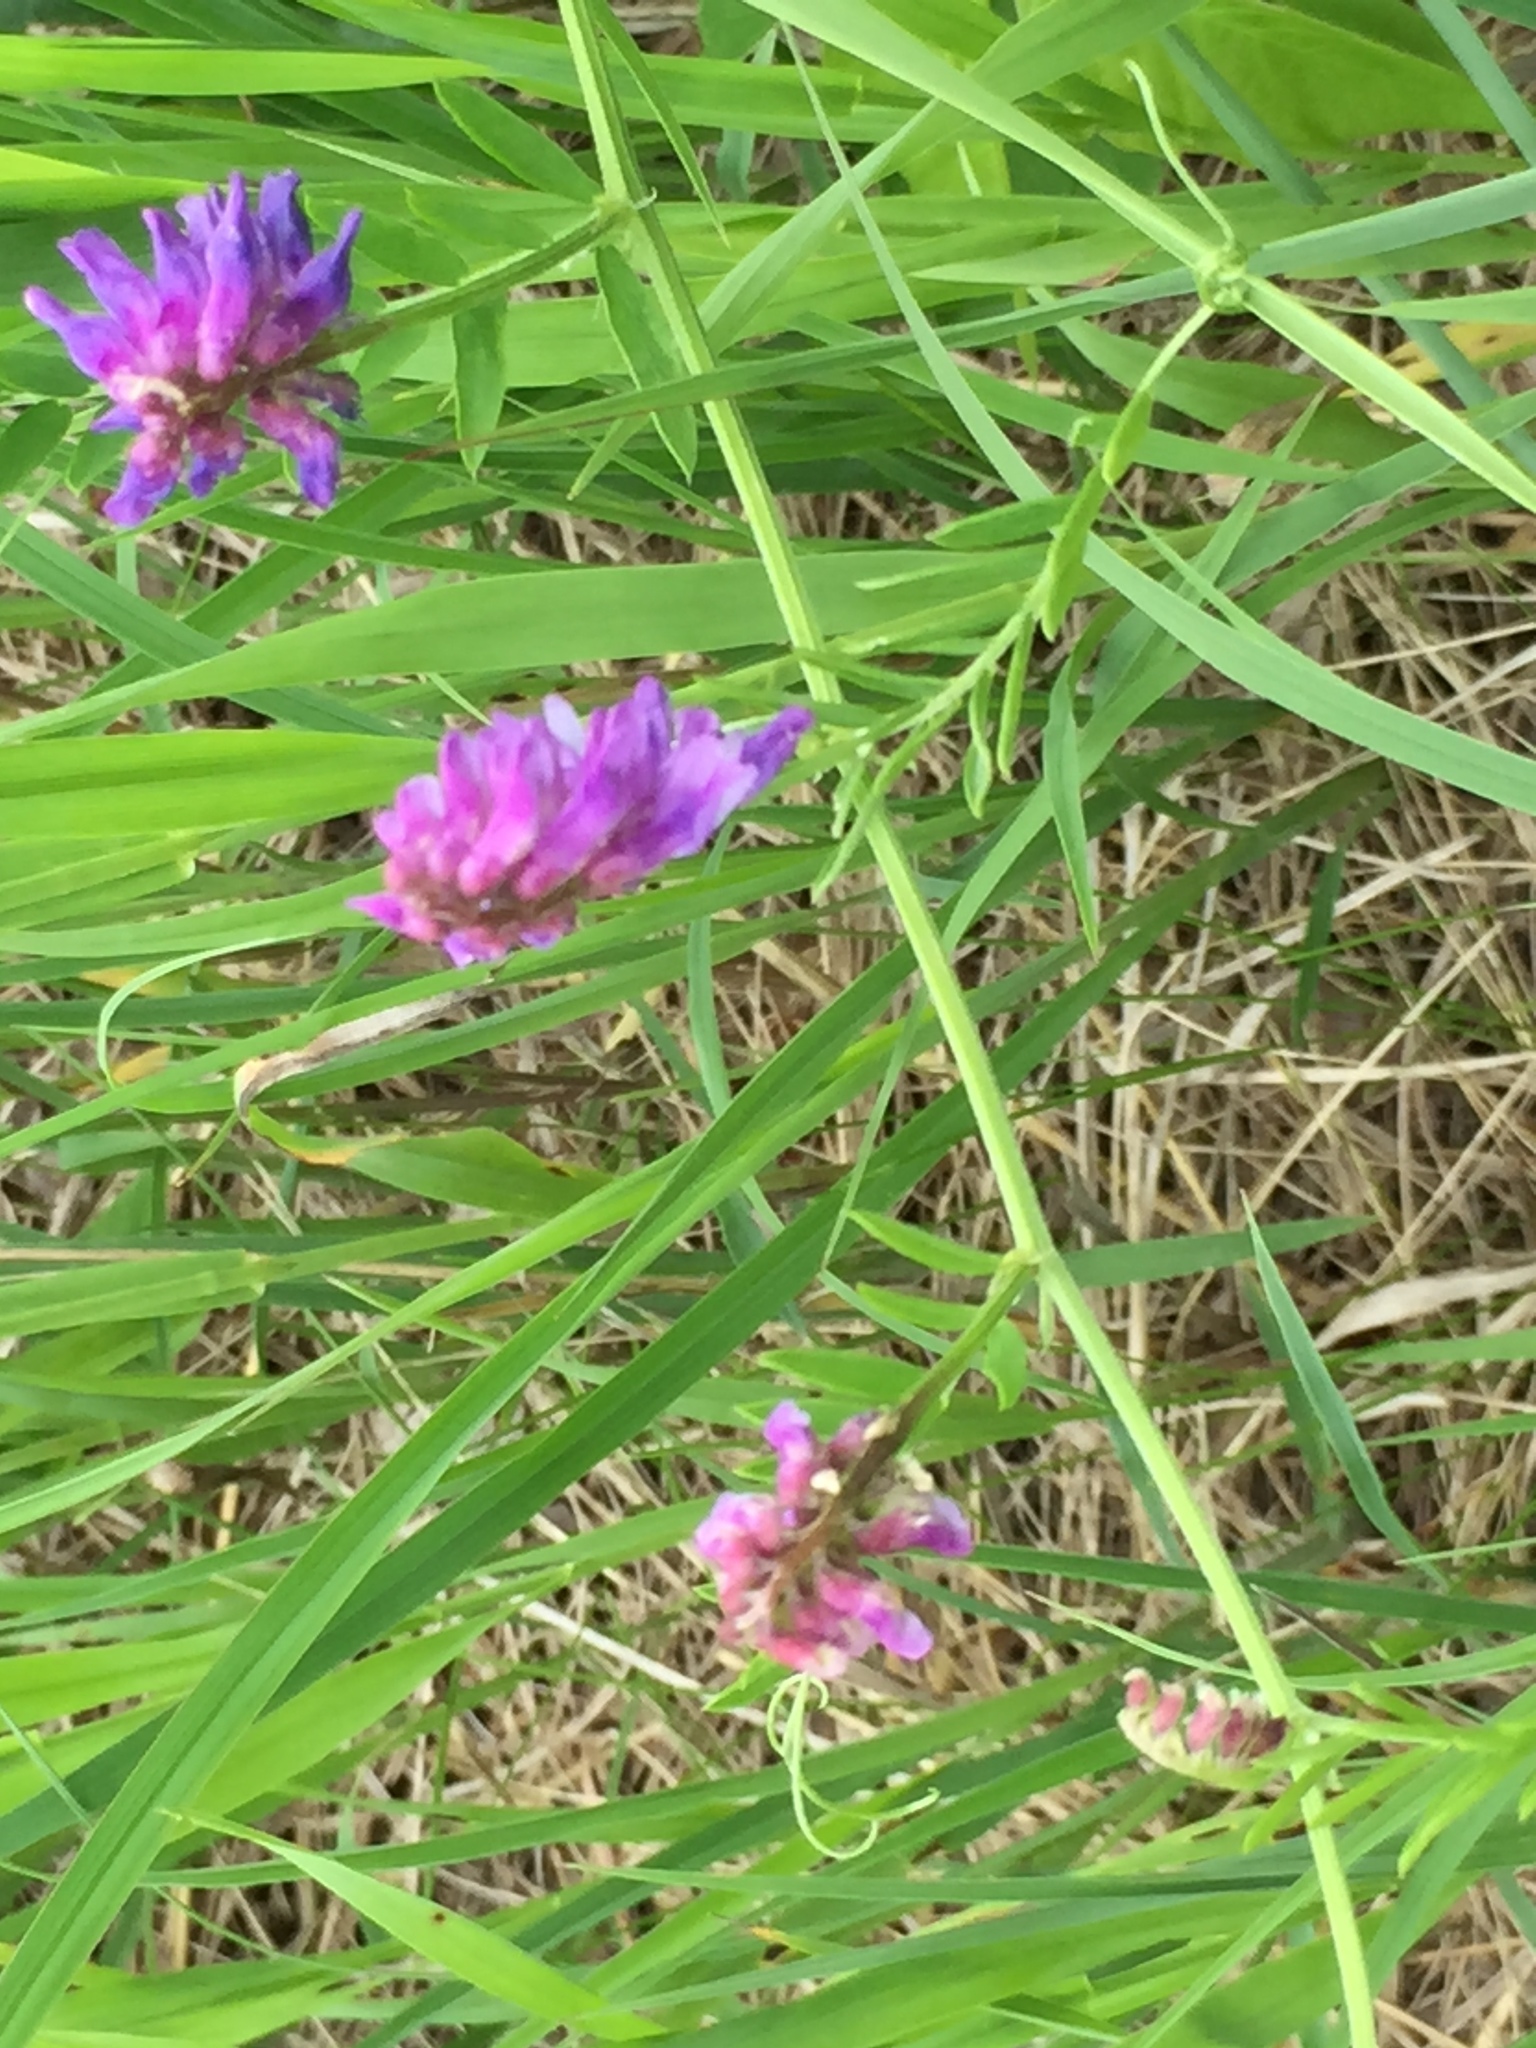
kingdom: Plantae
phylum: Tracheophyta
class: Magnoliopsida
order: Fabales
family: Fabaceae
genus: Vicia
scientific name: Vicia cracca
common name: Bird vetch
